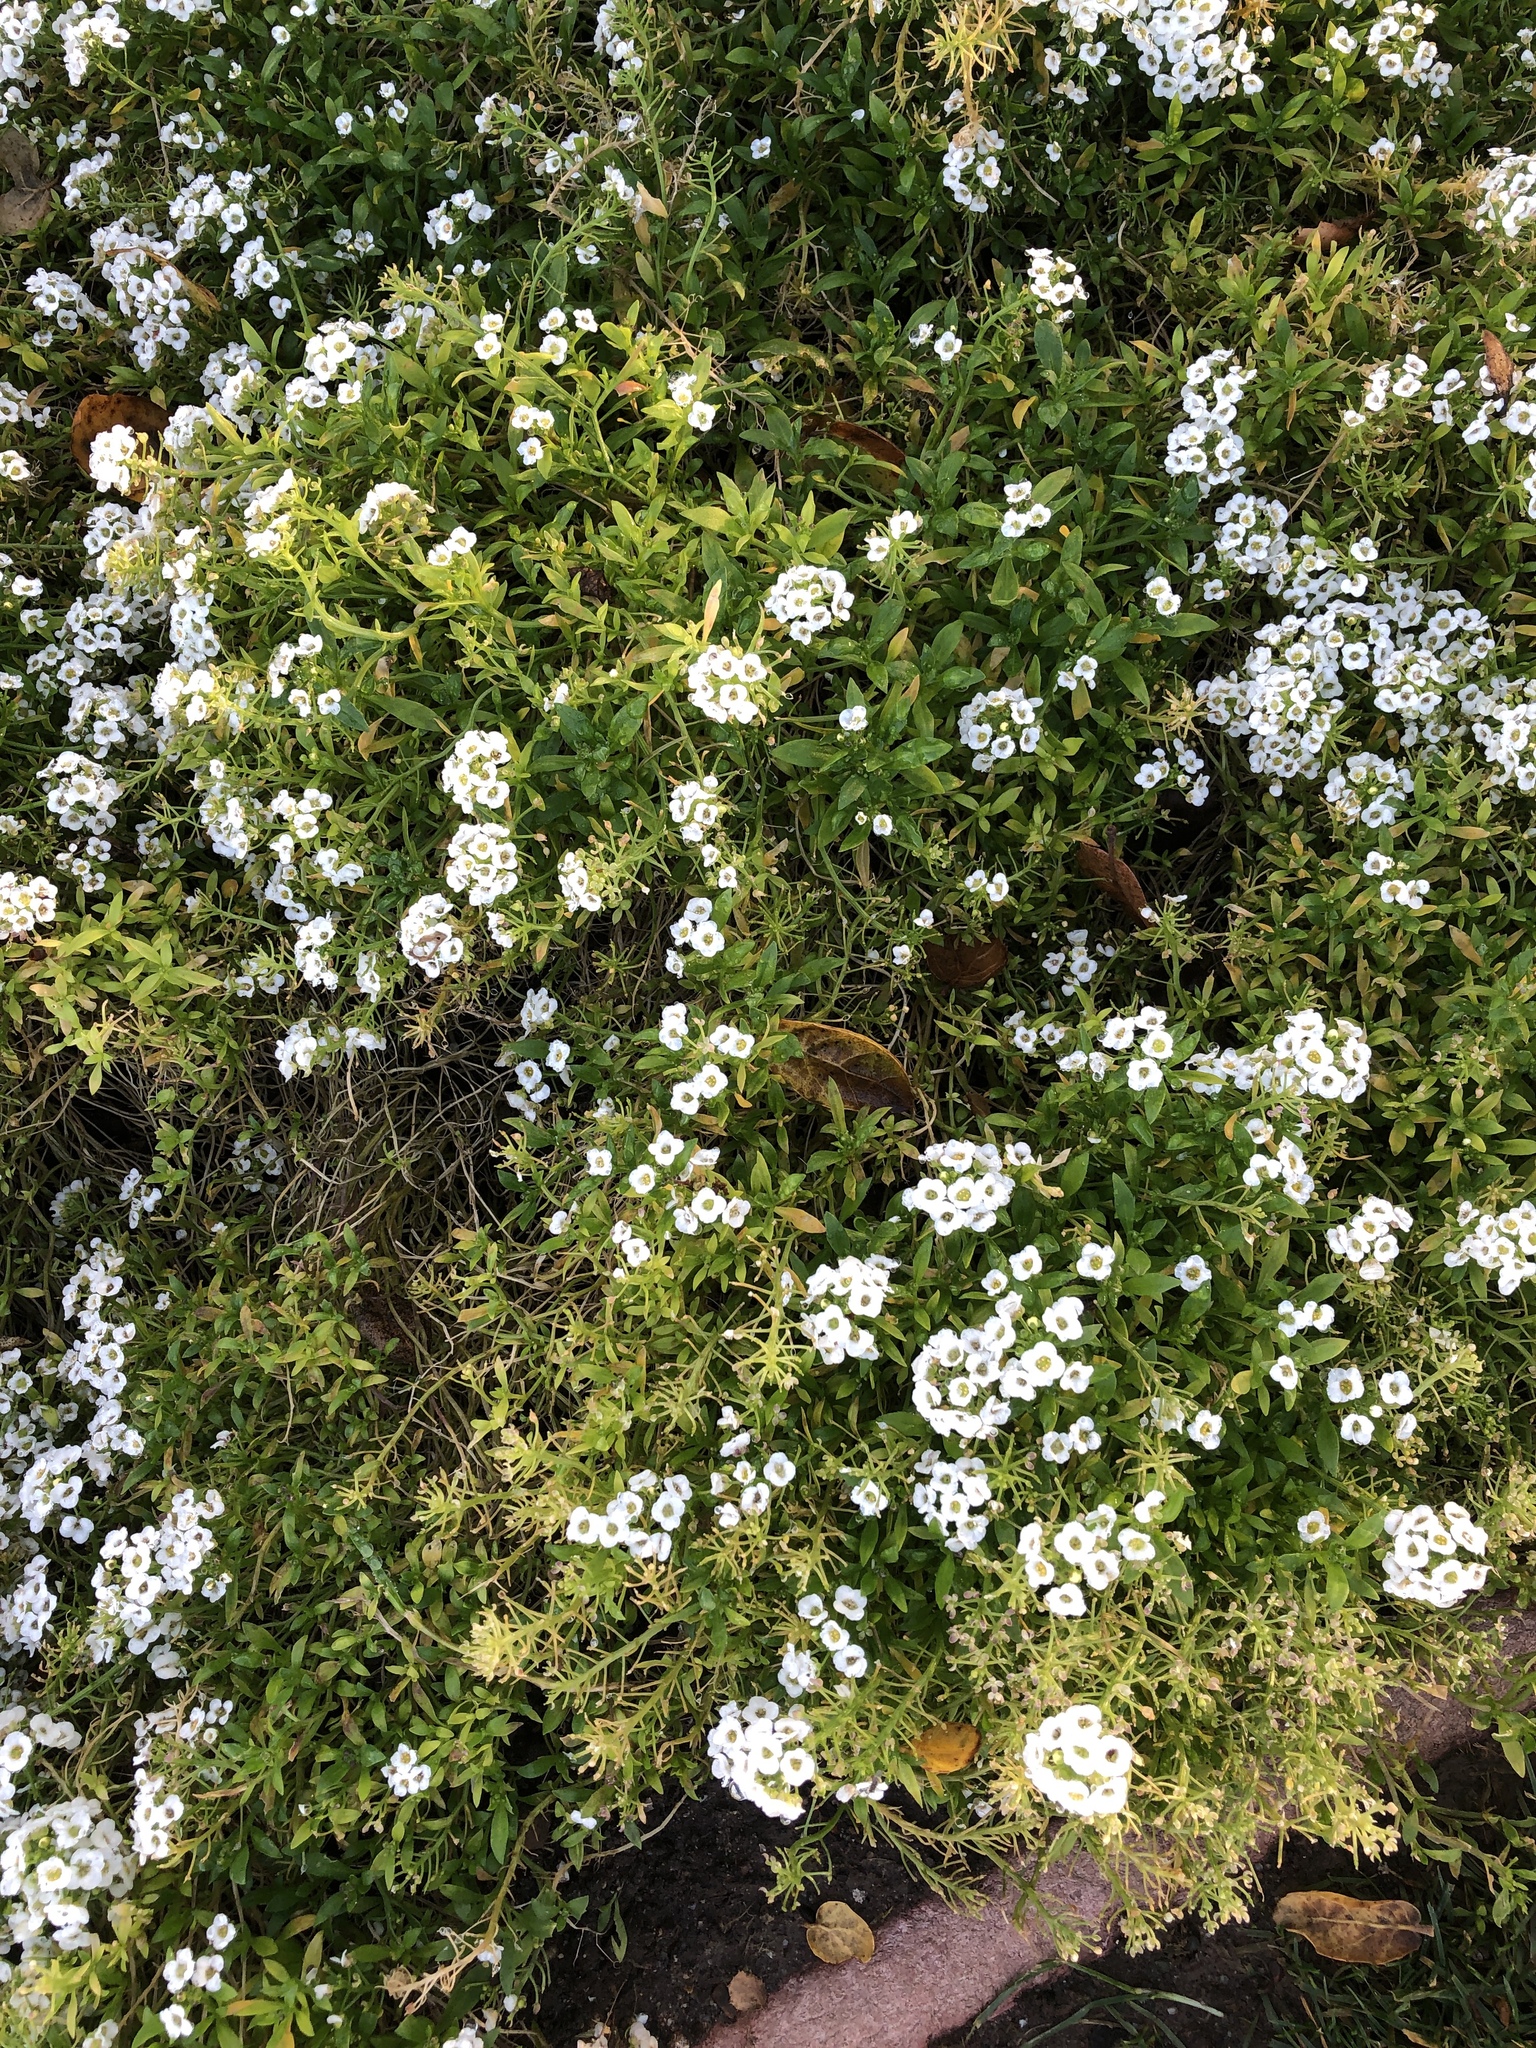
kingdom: Plantae
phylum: Tracheophyta
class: Magnoliopsida
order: Brassicales
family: Brassicaceae
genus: Lobularia
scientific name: Lobularia maritima
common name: Sweet alison
